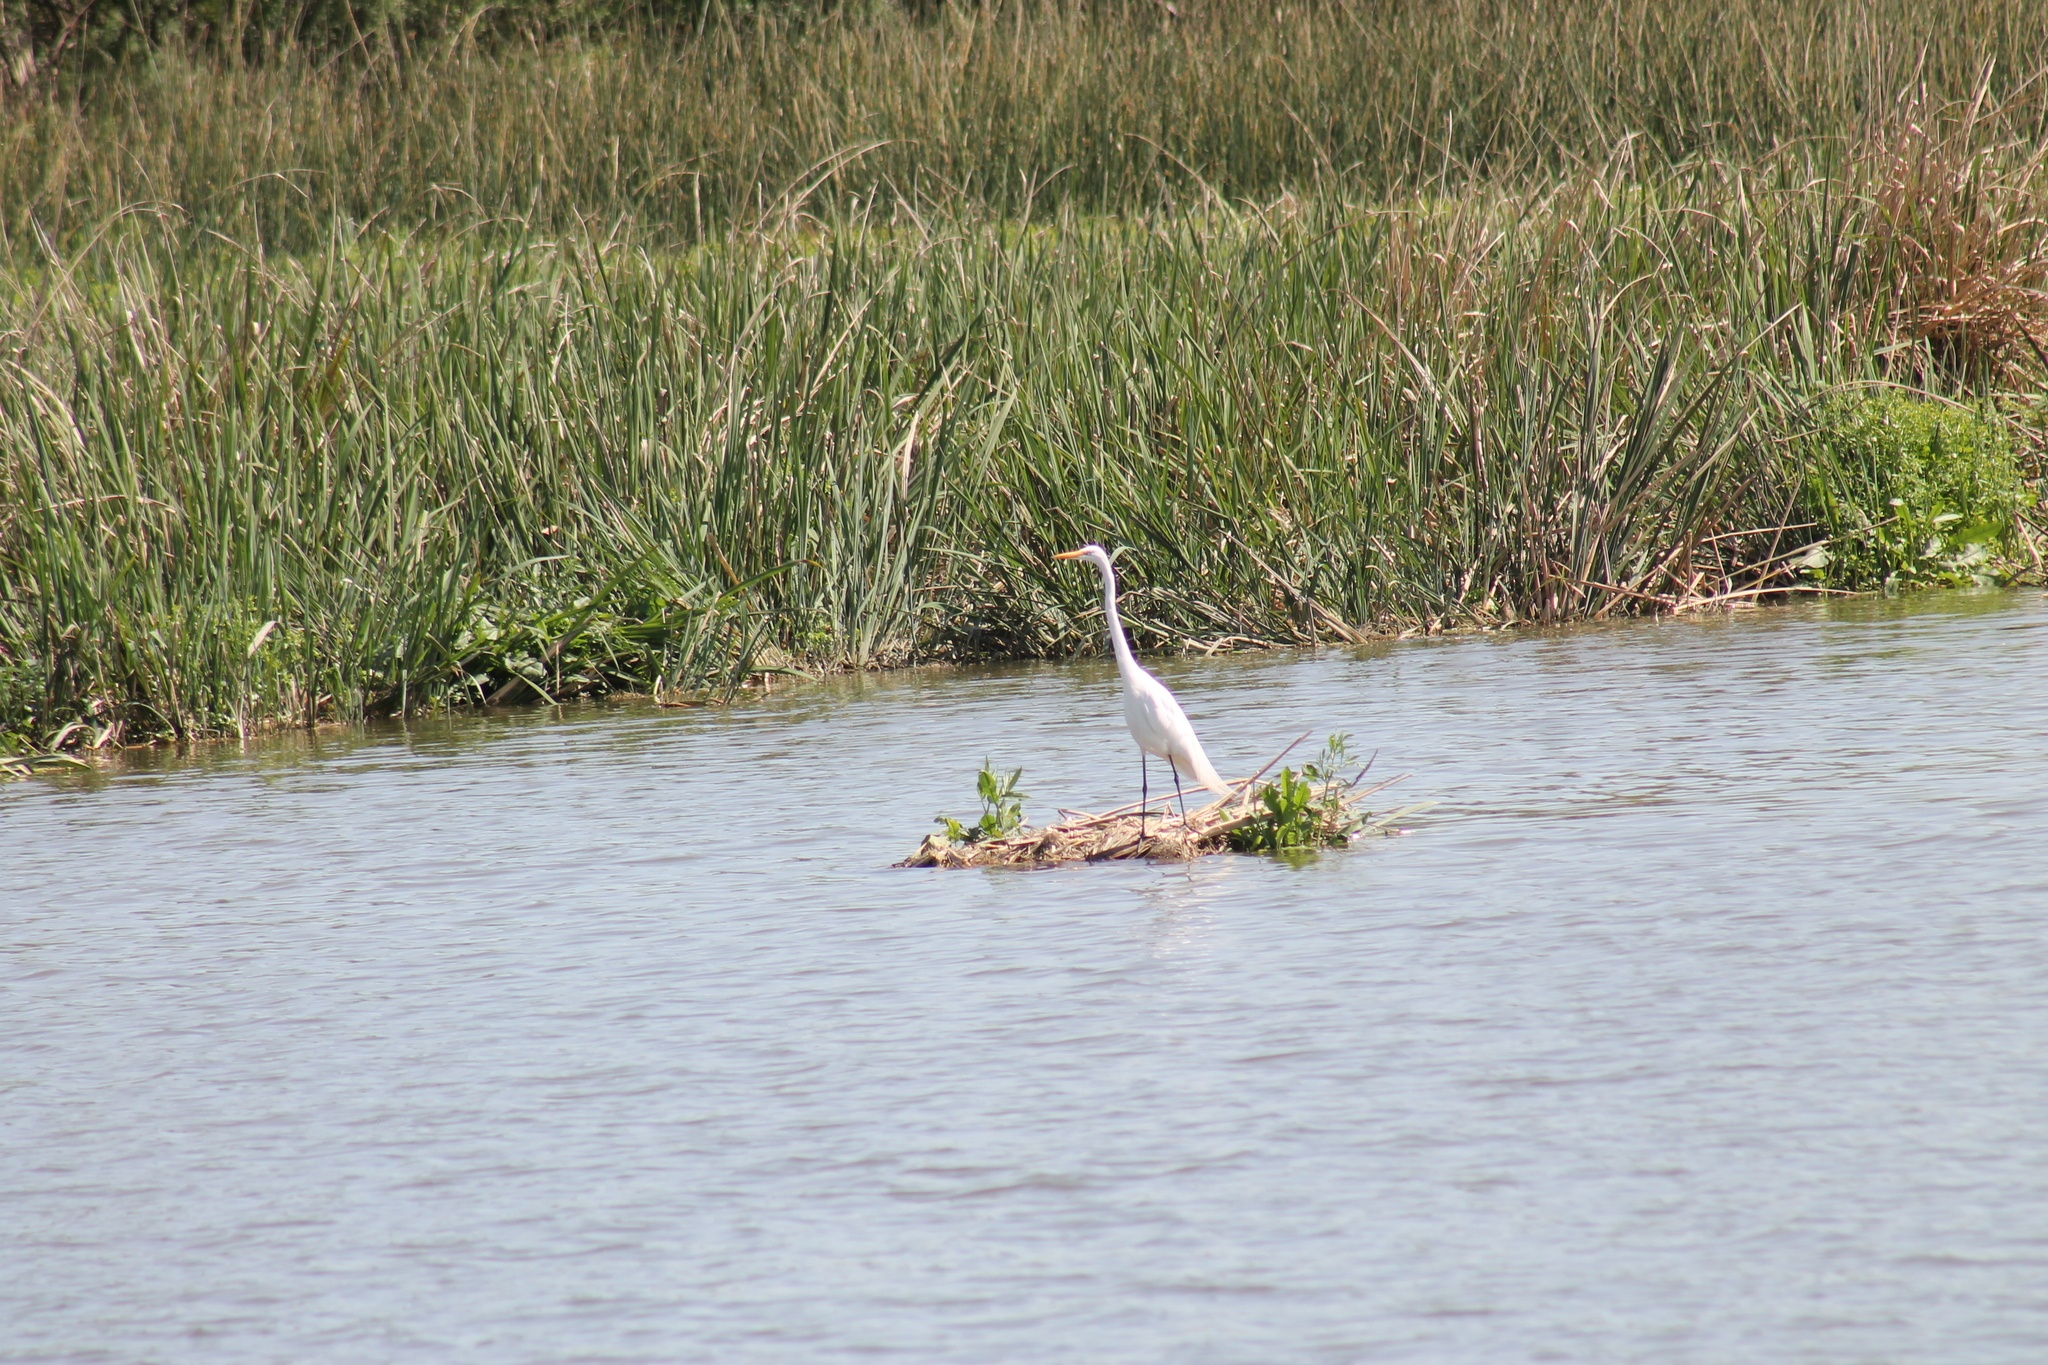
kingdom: Animalia
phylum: Chordata
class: Aves
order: Pelecaniformes
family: Ardeidae
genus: Ardea
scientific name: Ardea alba
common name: Great egret
